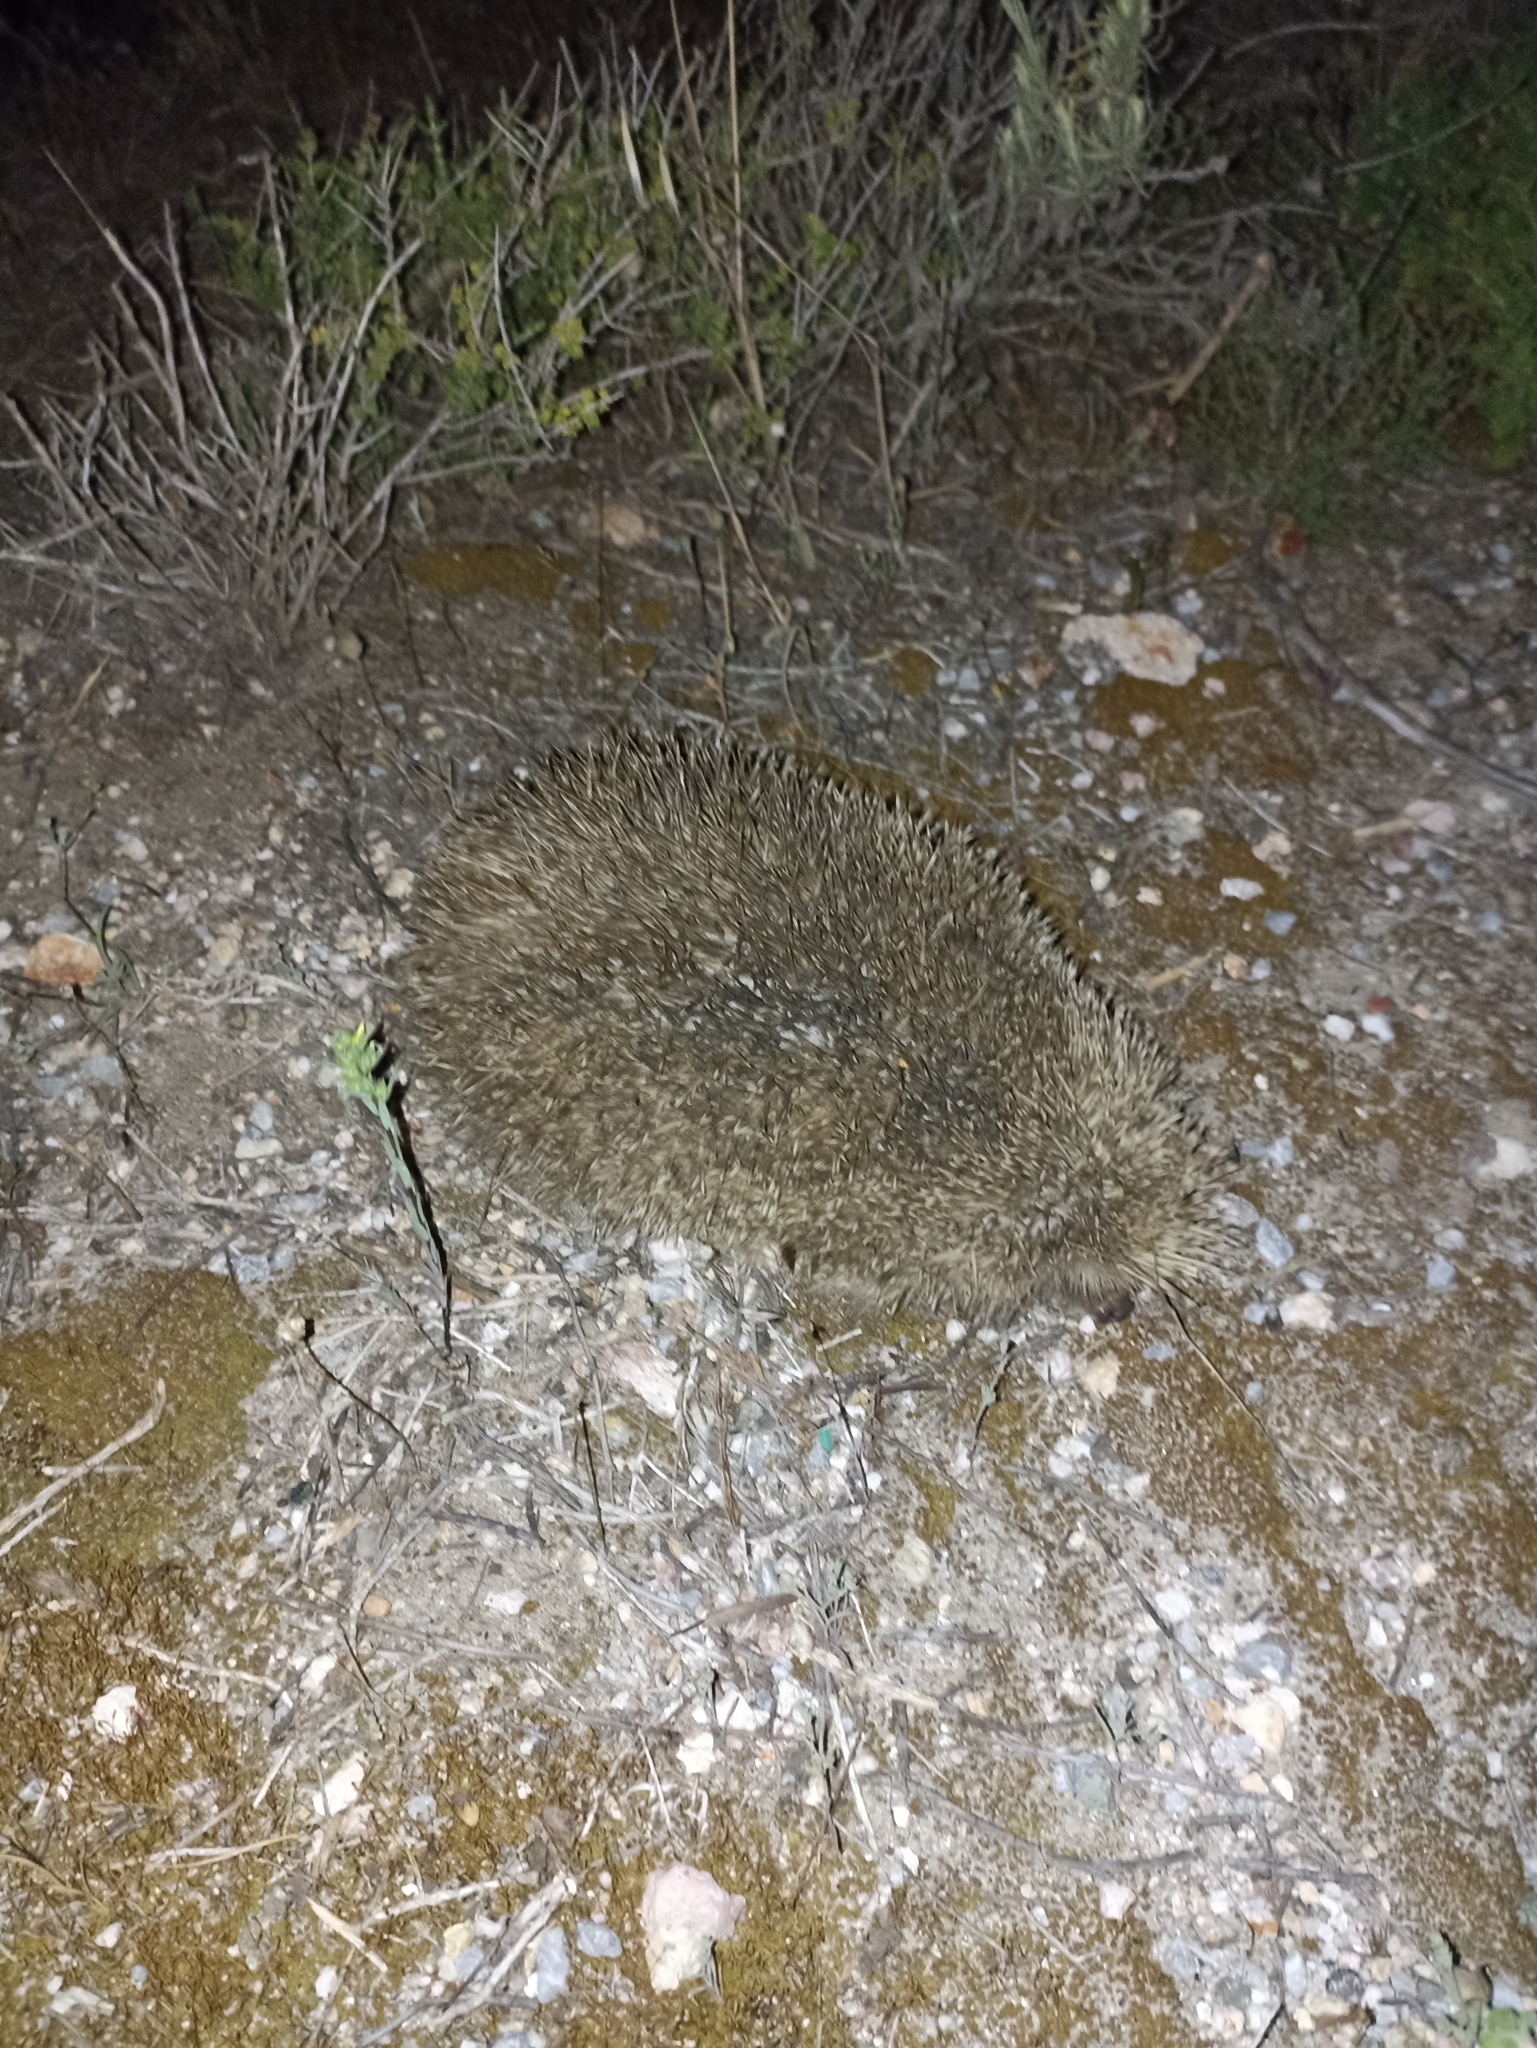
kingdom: Animalia
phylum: Chordata
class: Mammalia
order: Erinaceomorpha
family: Erinaceidae
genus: Erinaceus
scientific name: Erinaceus roumanicus
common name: Northern white-breasted hedgehog
